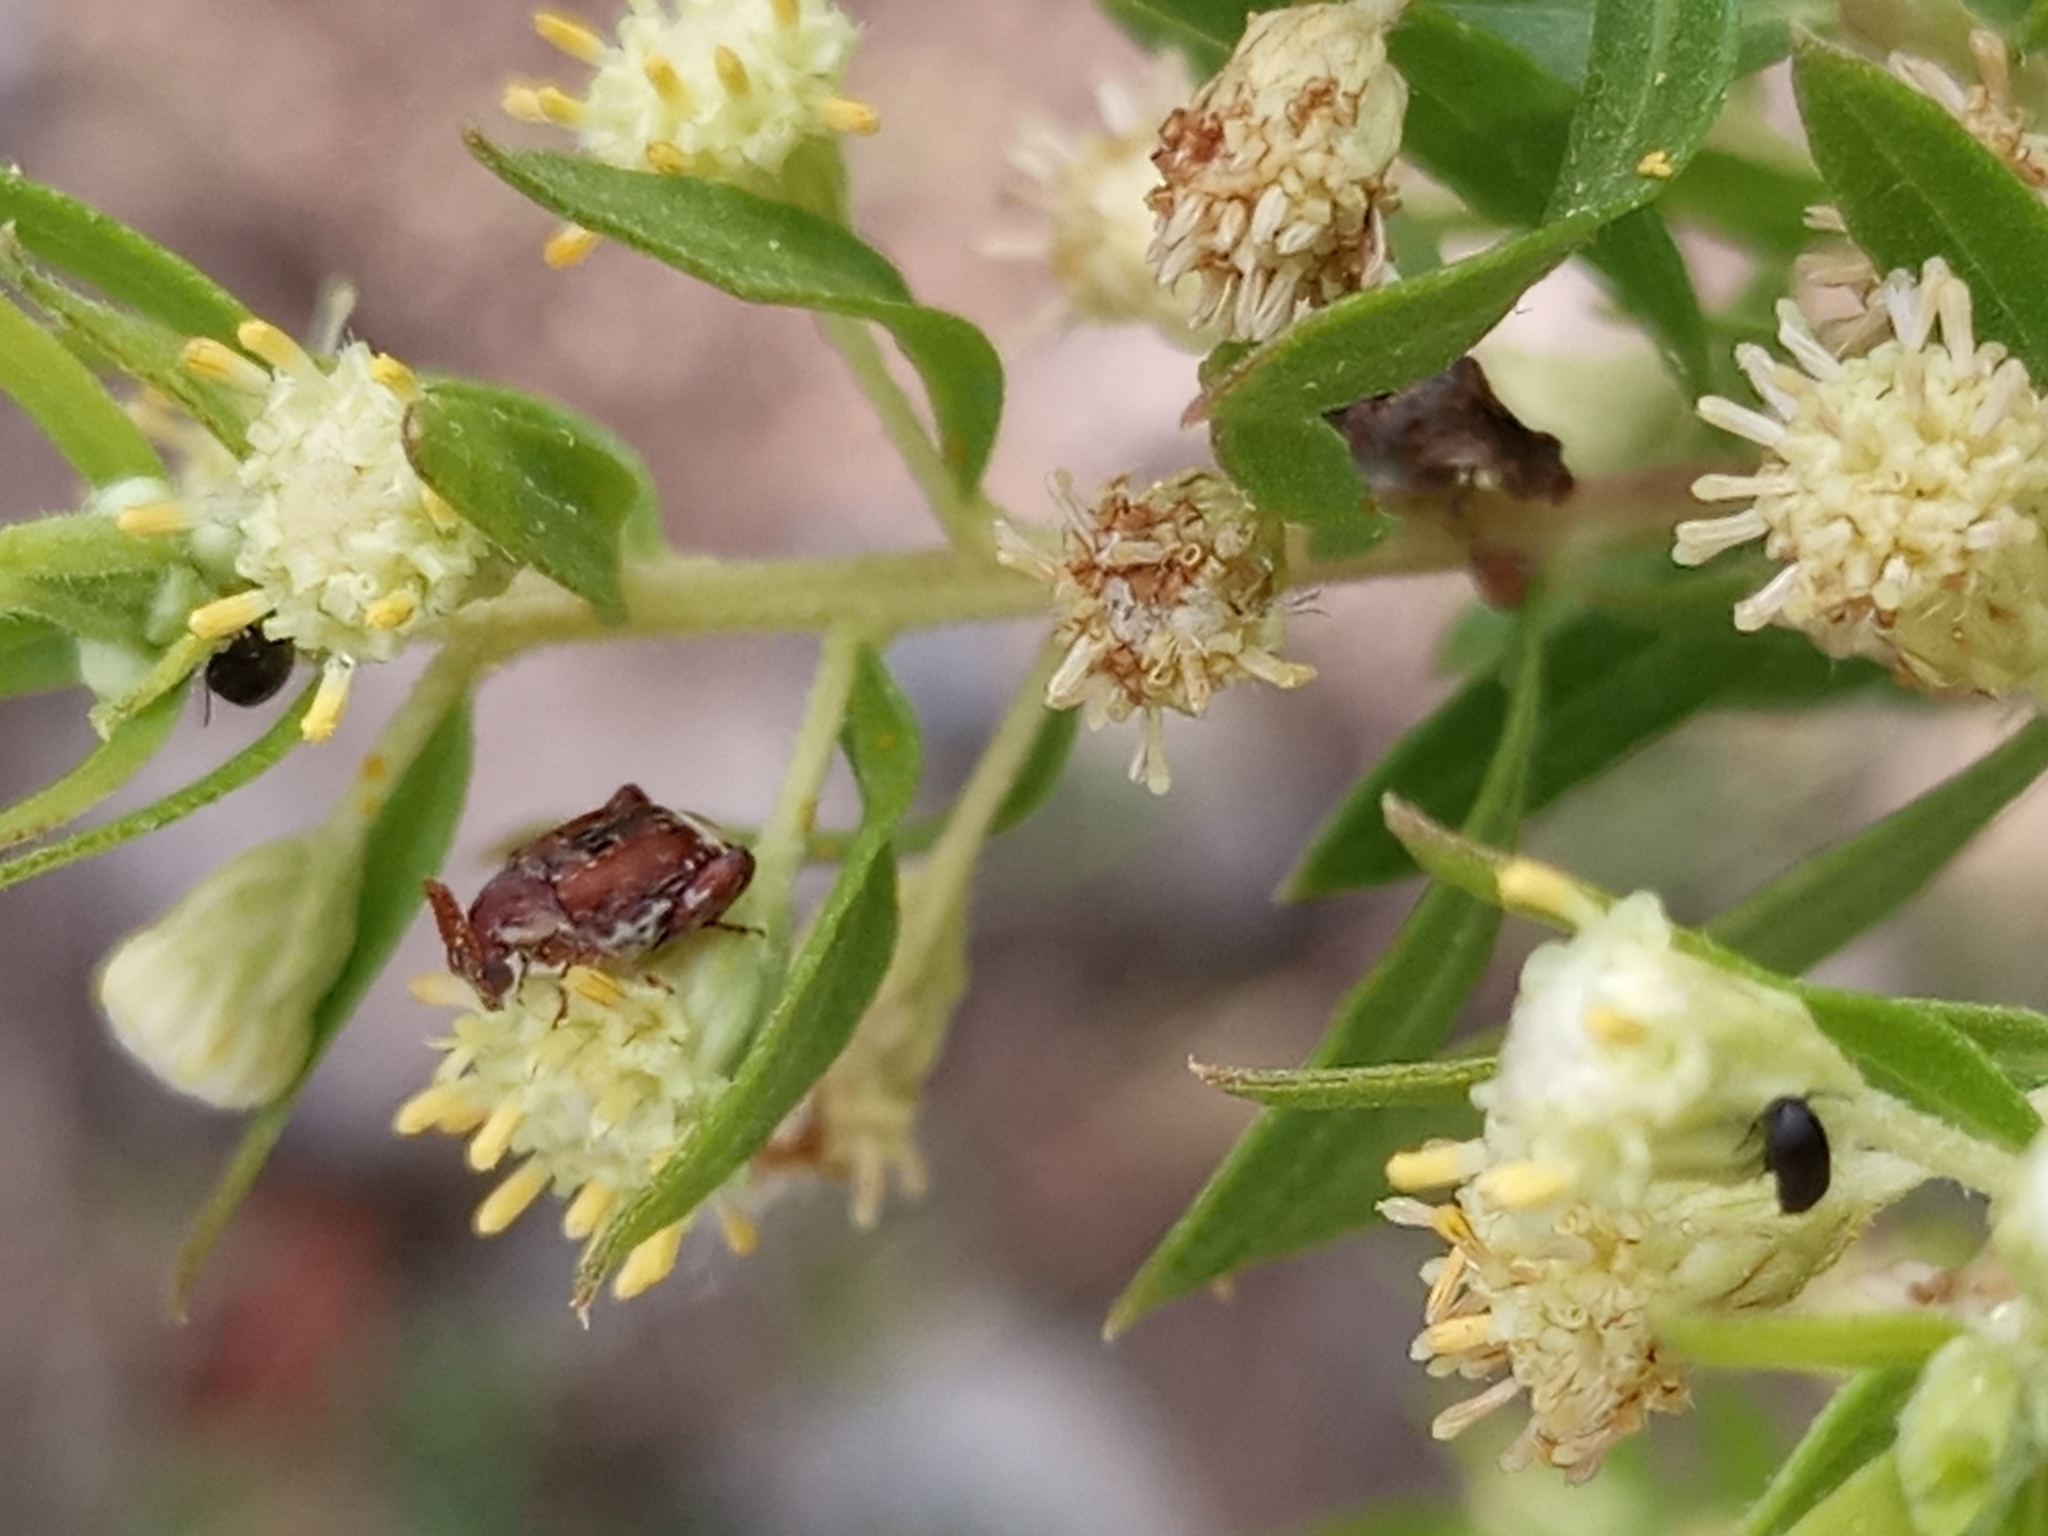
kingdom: Animalia
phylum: Arthropoda
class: Insecta
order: Coleoptera
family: Chrysomelidae
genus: Penthobruchus
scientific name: Penthobruchus
